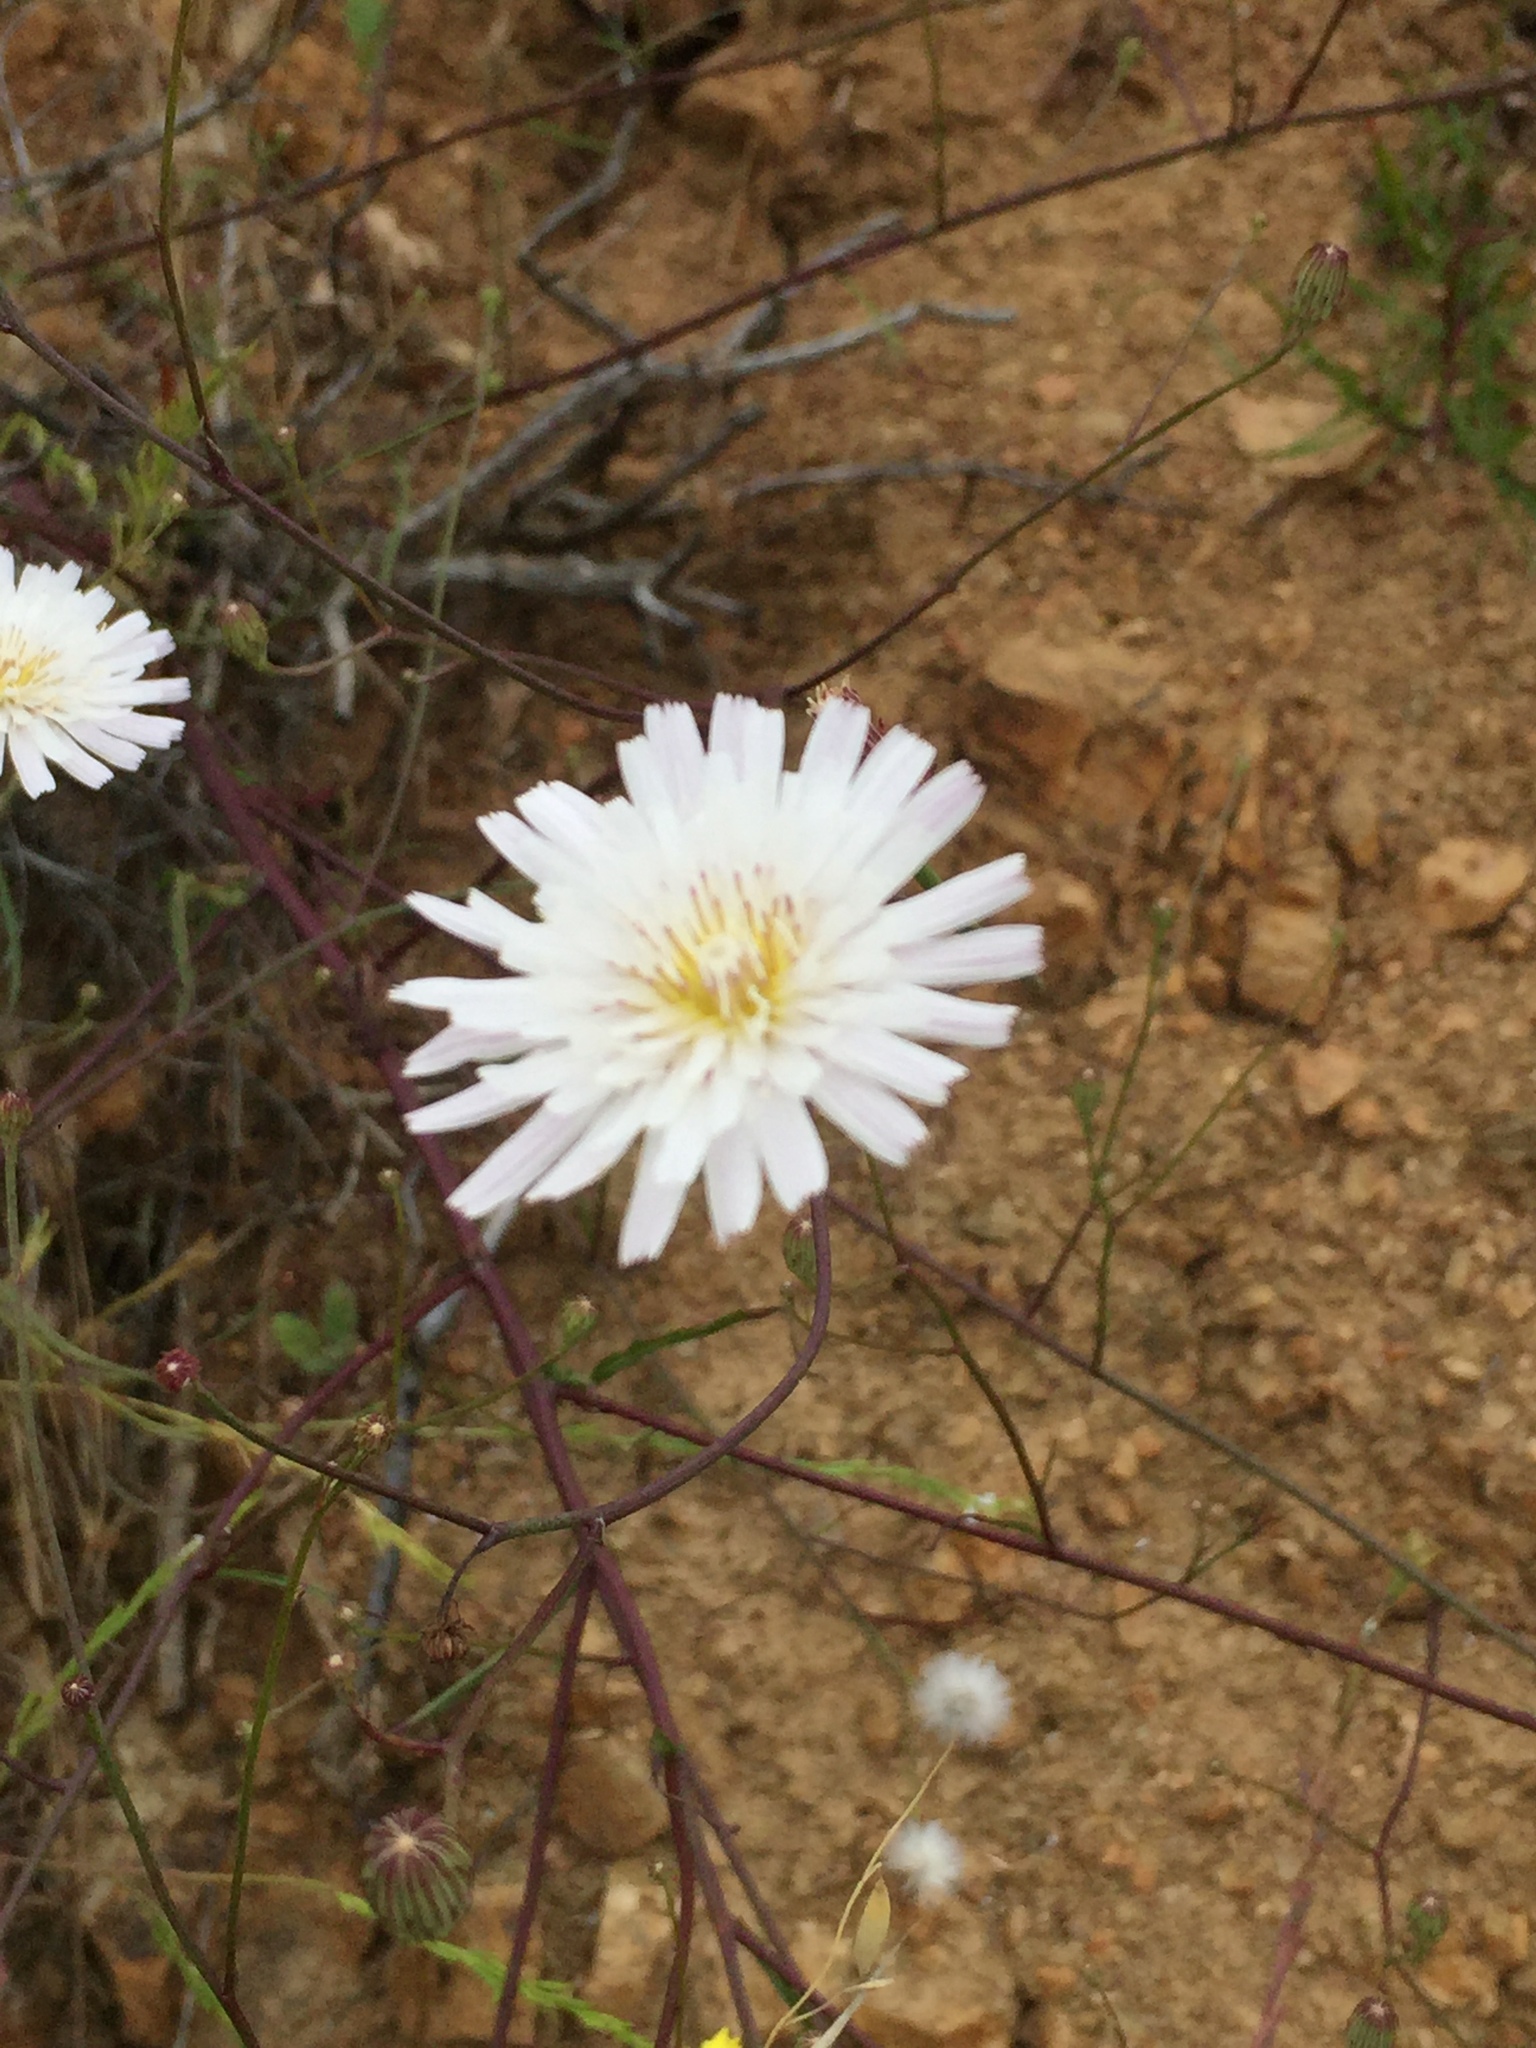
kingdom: Plantae
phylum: Tracheophyta
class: Magnoliopsida
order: Asterales
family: Asteraceae
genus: Malacothrix
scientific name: Malacothrix saxatilis
